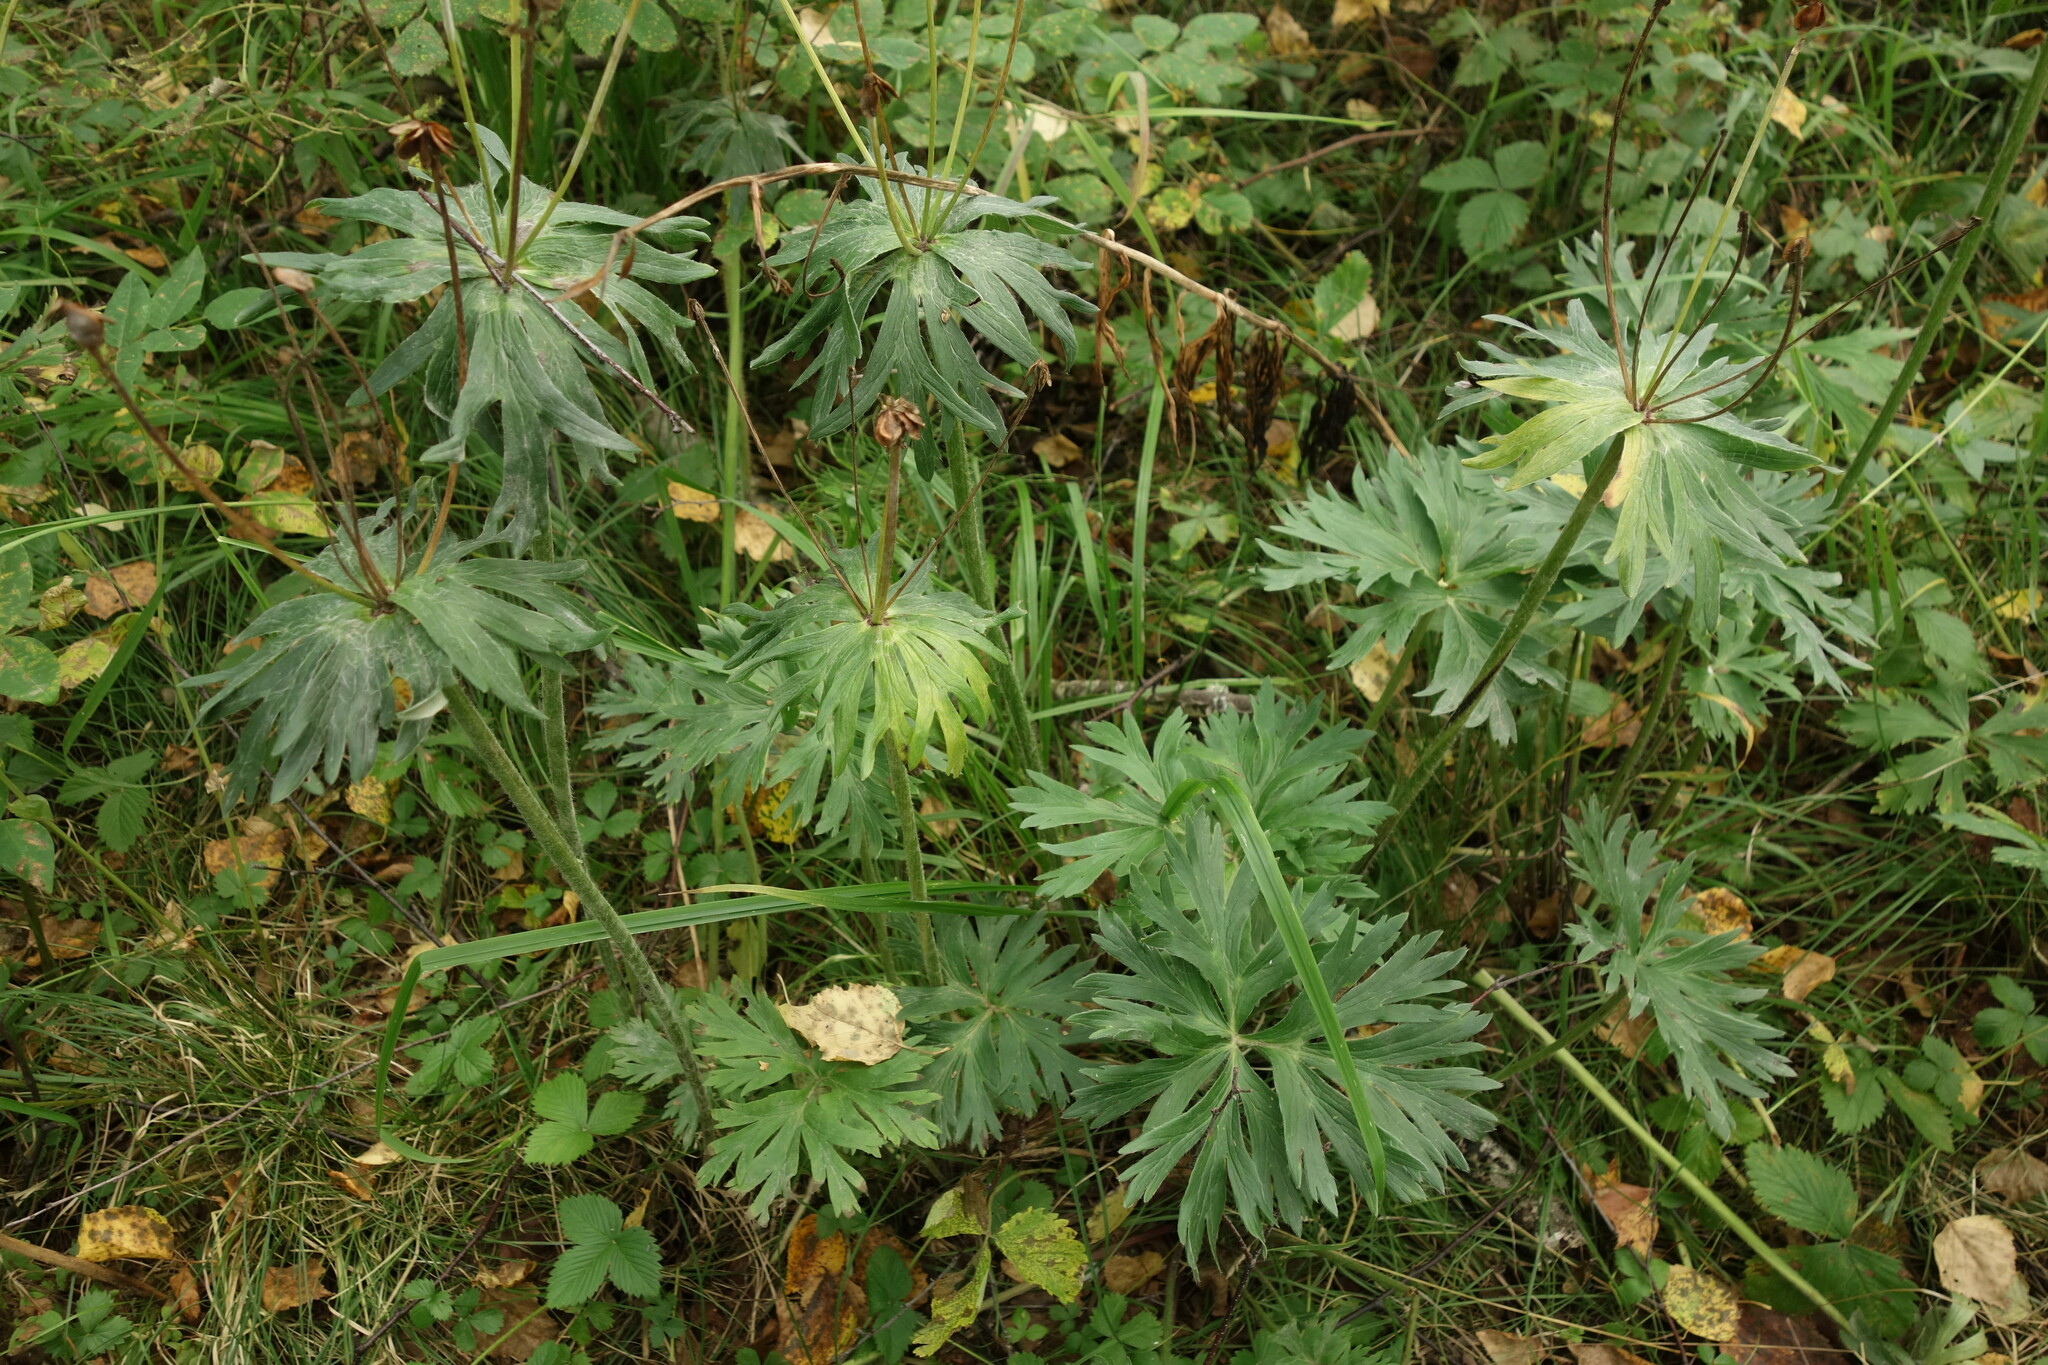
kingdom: Plantae
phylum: Tracheophyta
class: Magnoliopsida
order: Ranunculales
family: Ranunculaceae
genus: Anemonastrum
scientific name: Anemonastrum narcissiflorum
